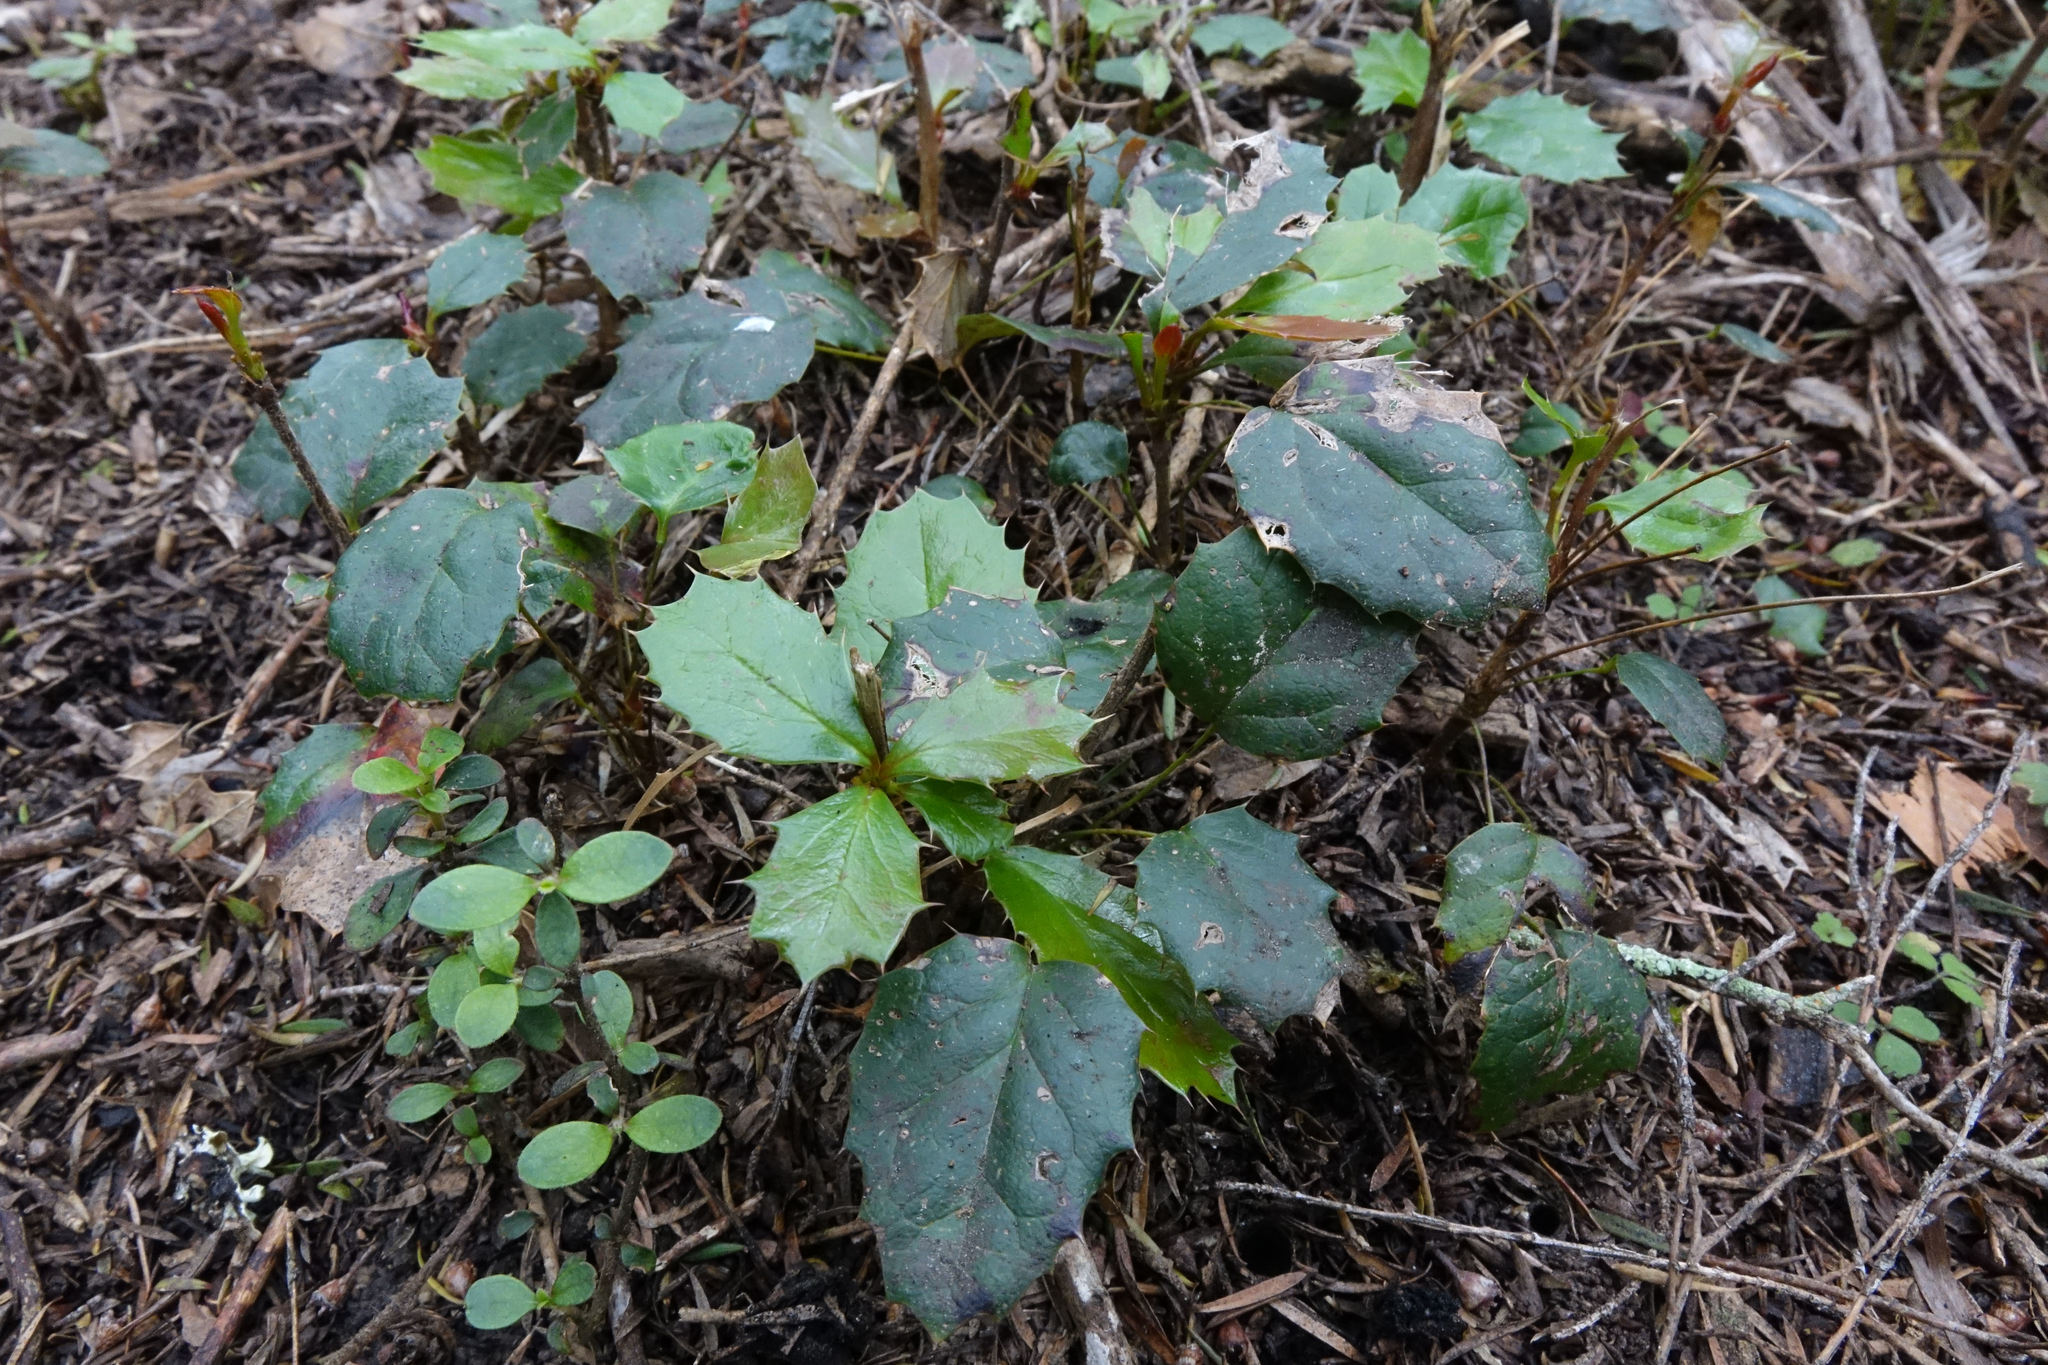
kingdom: Plantae
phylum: Tracheophyta
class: Magnoliopsida
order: Ranunculales
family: Berberidaceae
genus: Berberis
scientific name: Berberis darwinii
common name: Darwin's barberry
